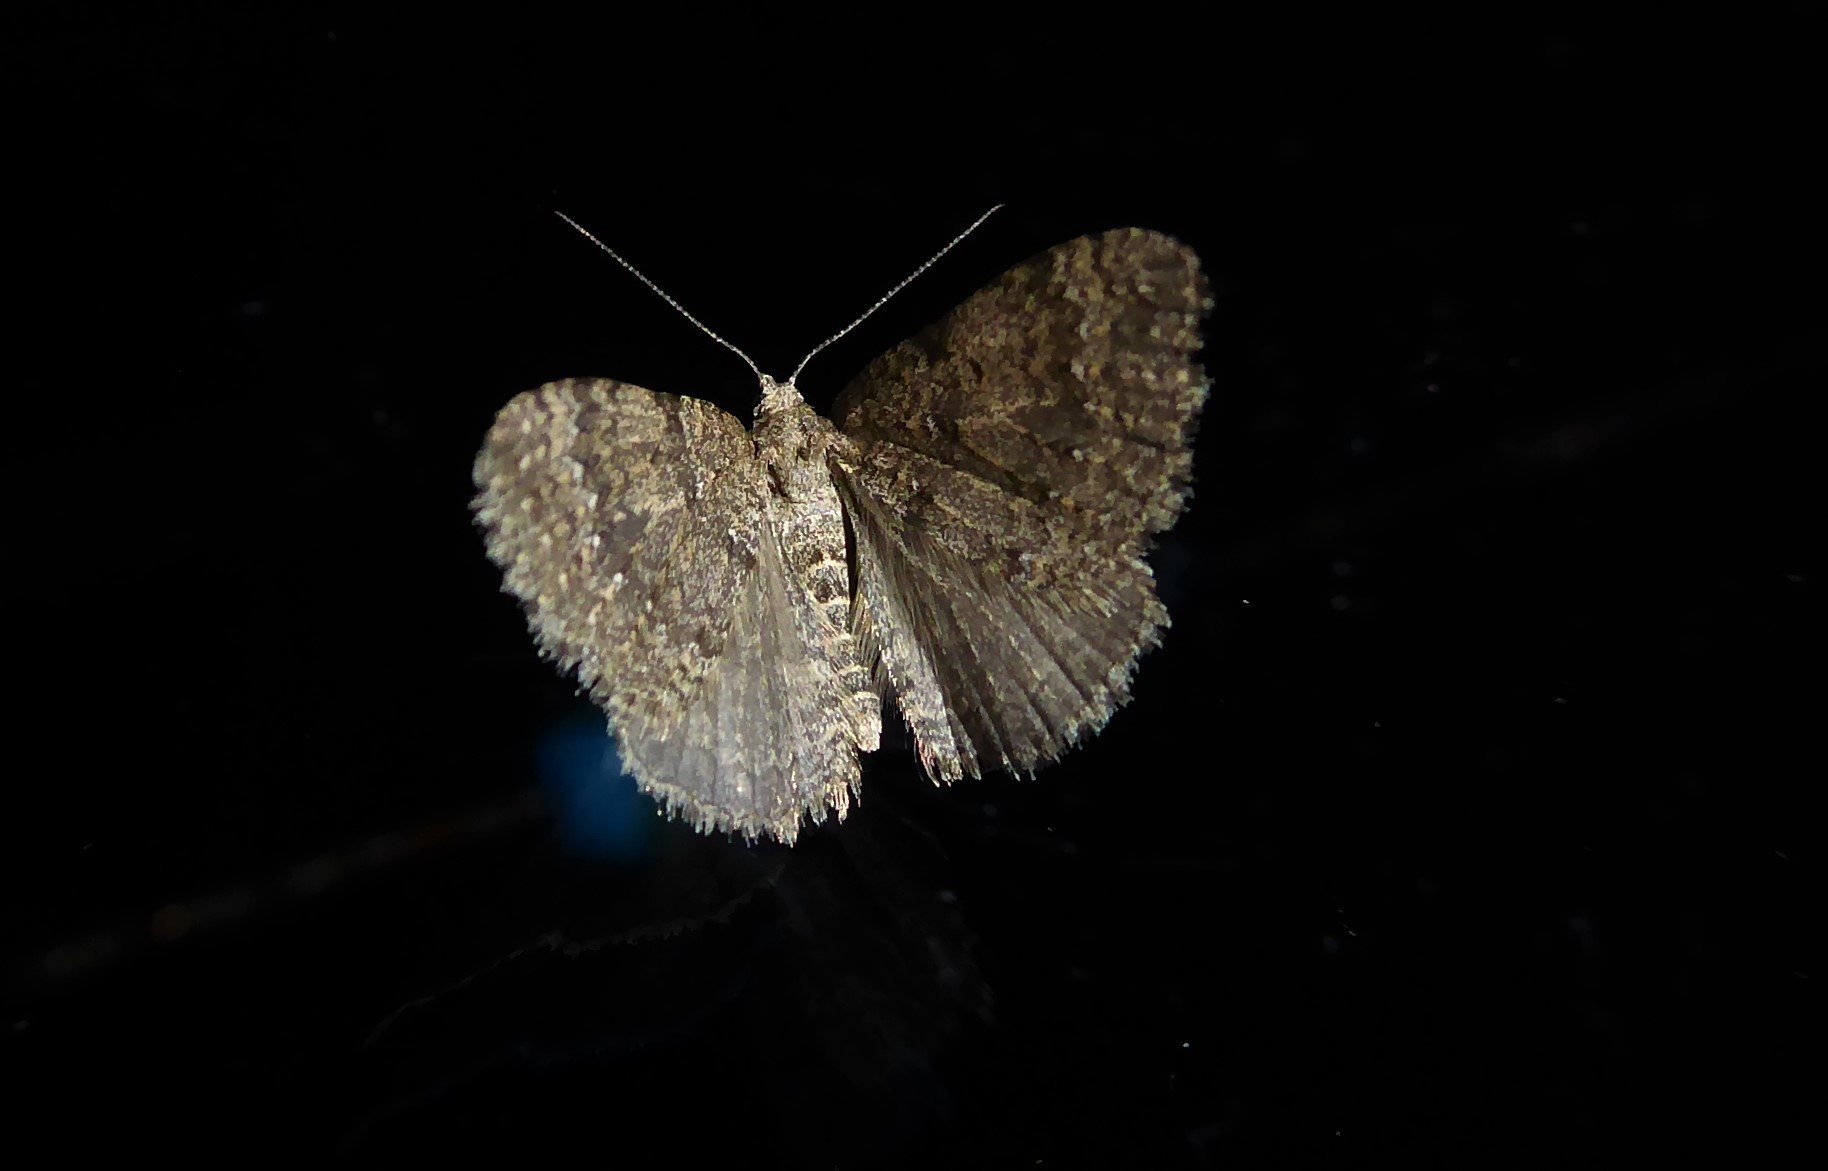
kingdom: Animalia
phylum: Arthropoda
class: Insecta
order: Lepidoptera
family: Geometridae
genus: Helastia
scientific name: Helastia corcularia
